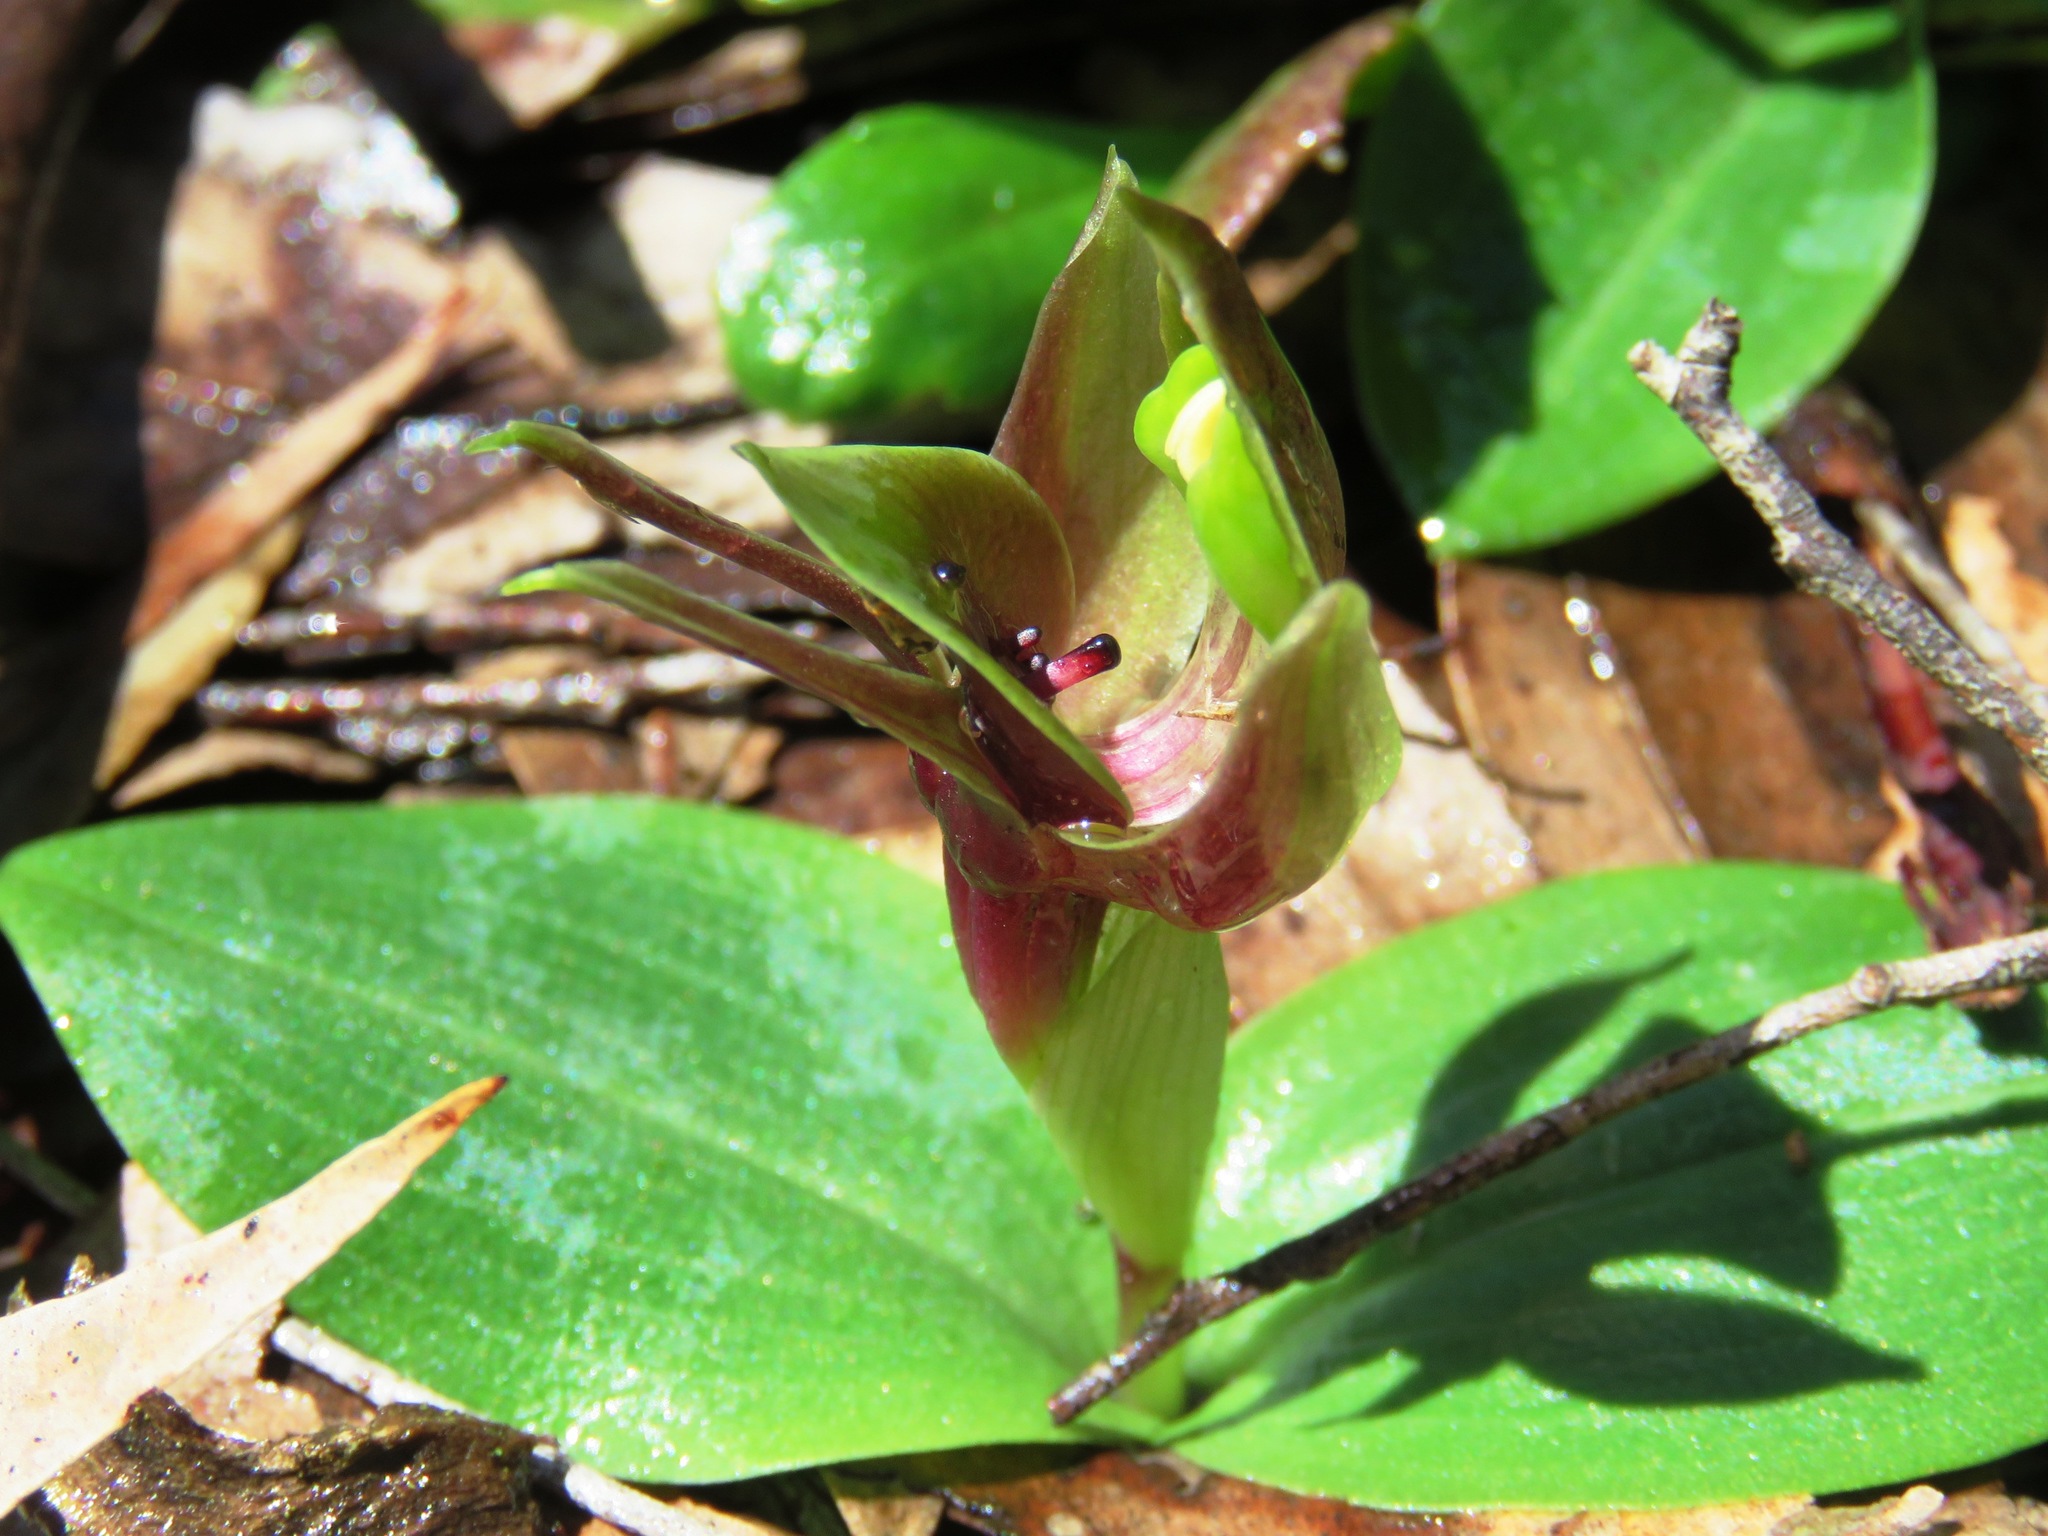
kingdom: Plantae
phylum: Tracheophyta
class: Liliopsida
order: Asparagales
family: Orchidaceae
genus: Chiloglottis
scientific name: Chiloglottis valida
